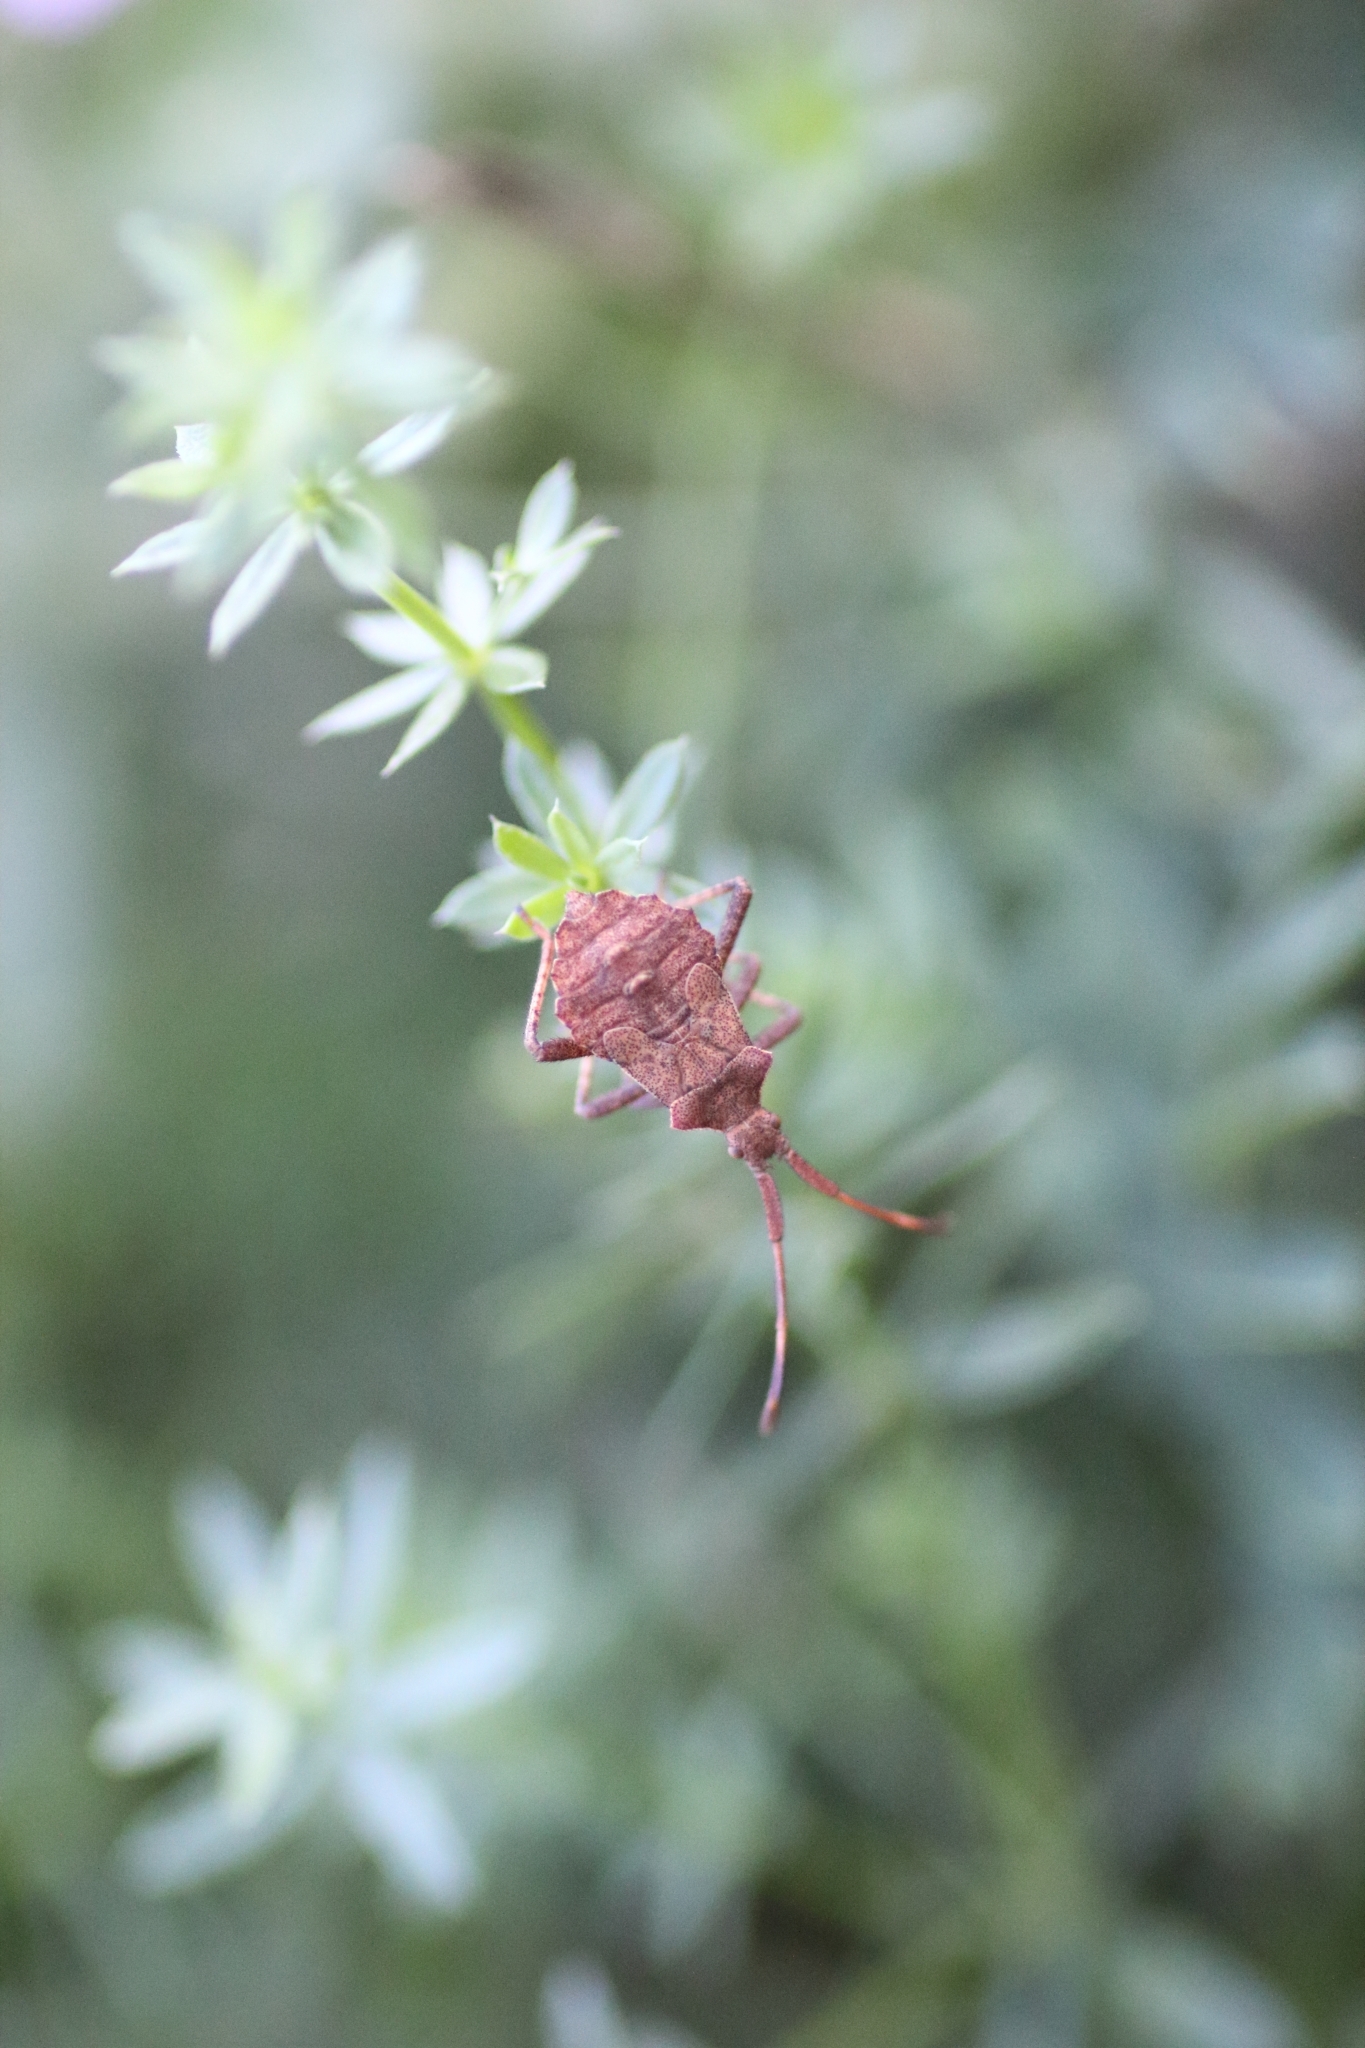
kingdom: Animalia
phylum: Arthropoda
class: Insecta
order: Hemiptera
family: Coreidae
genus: Coreus
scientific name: Coreus marginatus
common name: Dock bug
